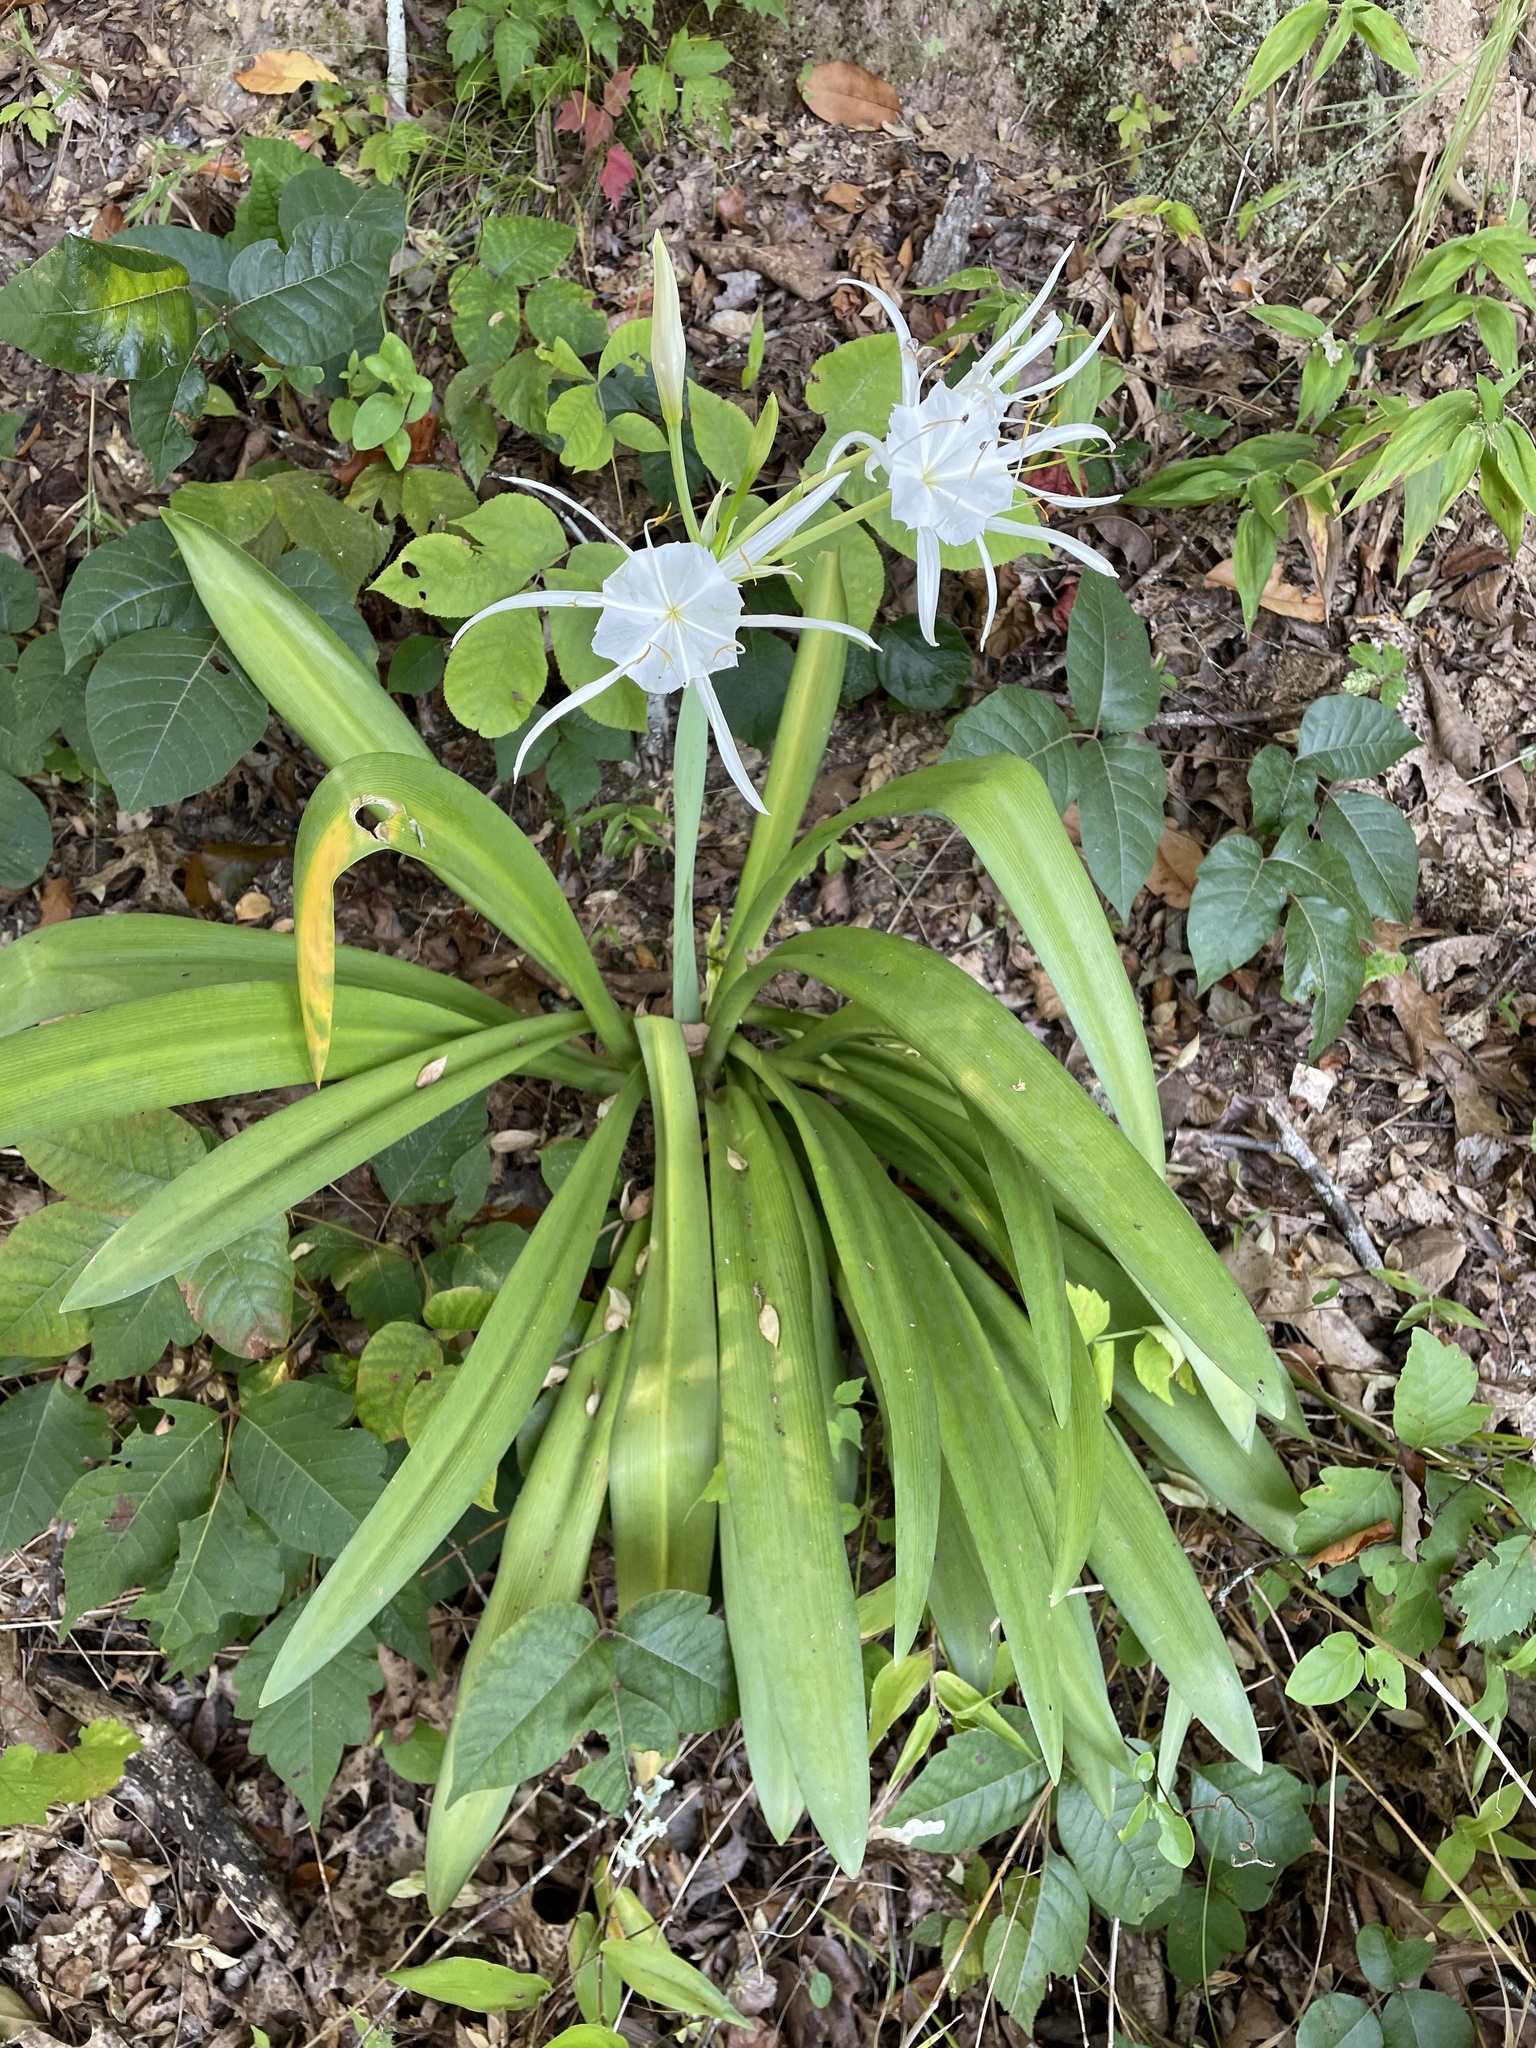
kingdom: Plantae
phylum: Tracheophyta
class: Liliopsida
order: Asparagales
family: Amaryllidaceae
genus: Hymenocallis
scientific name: Hymenocallis occidentalis
